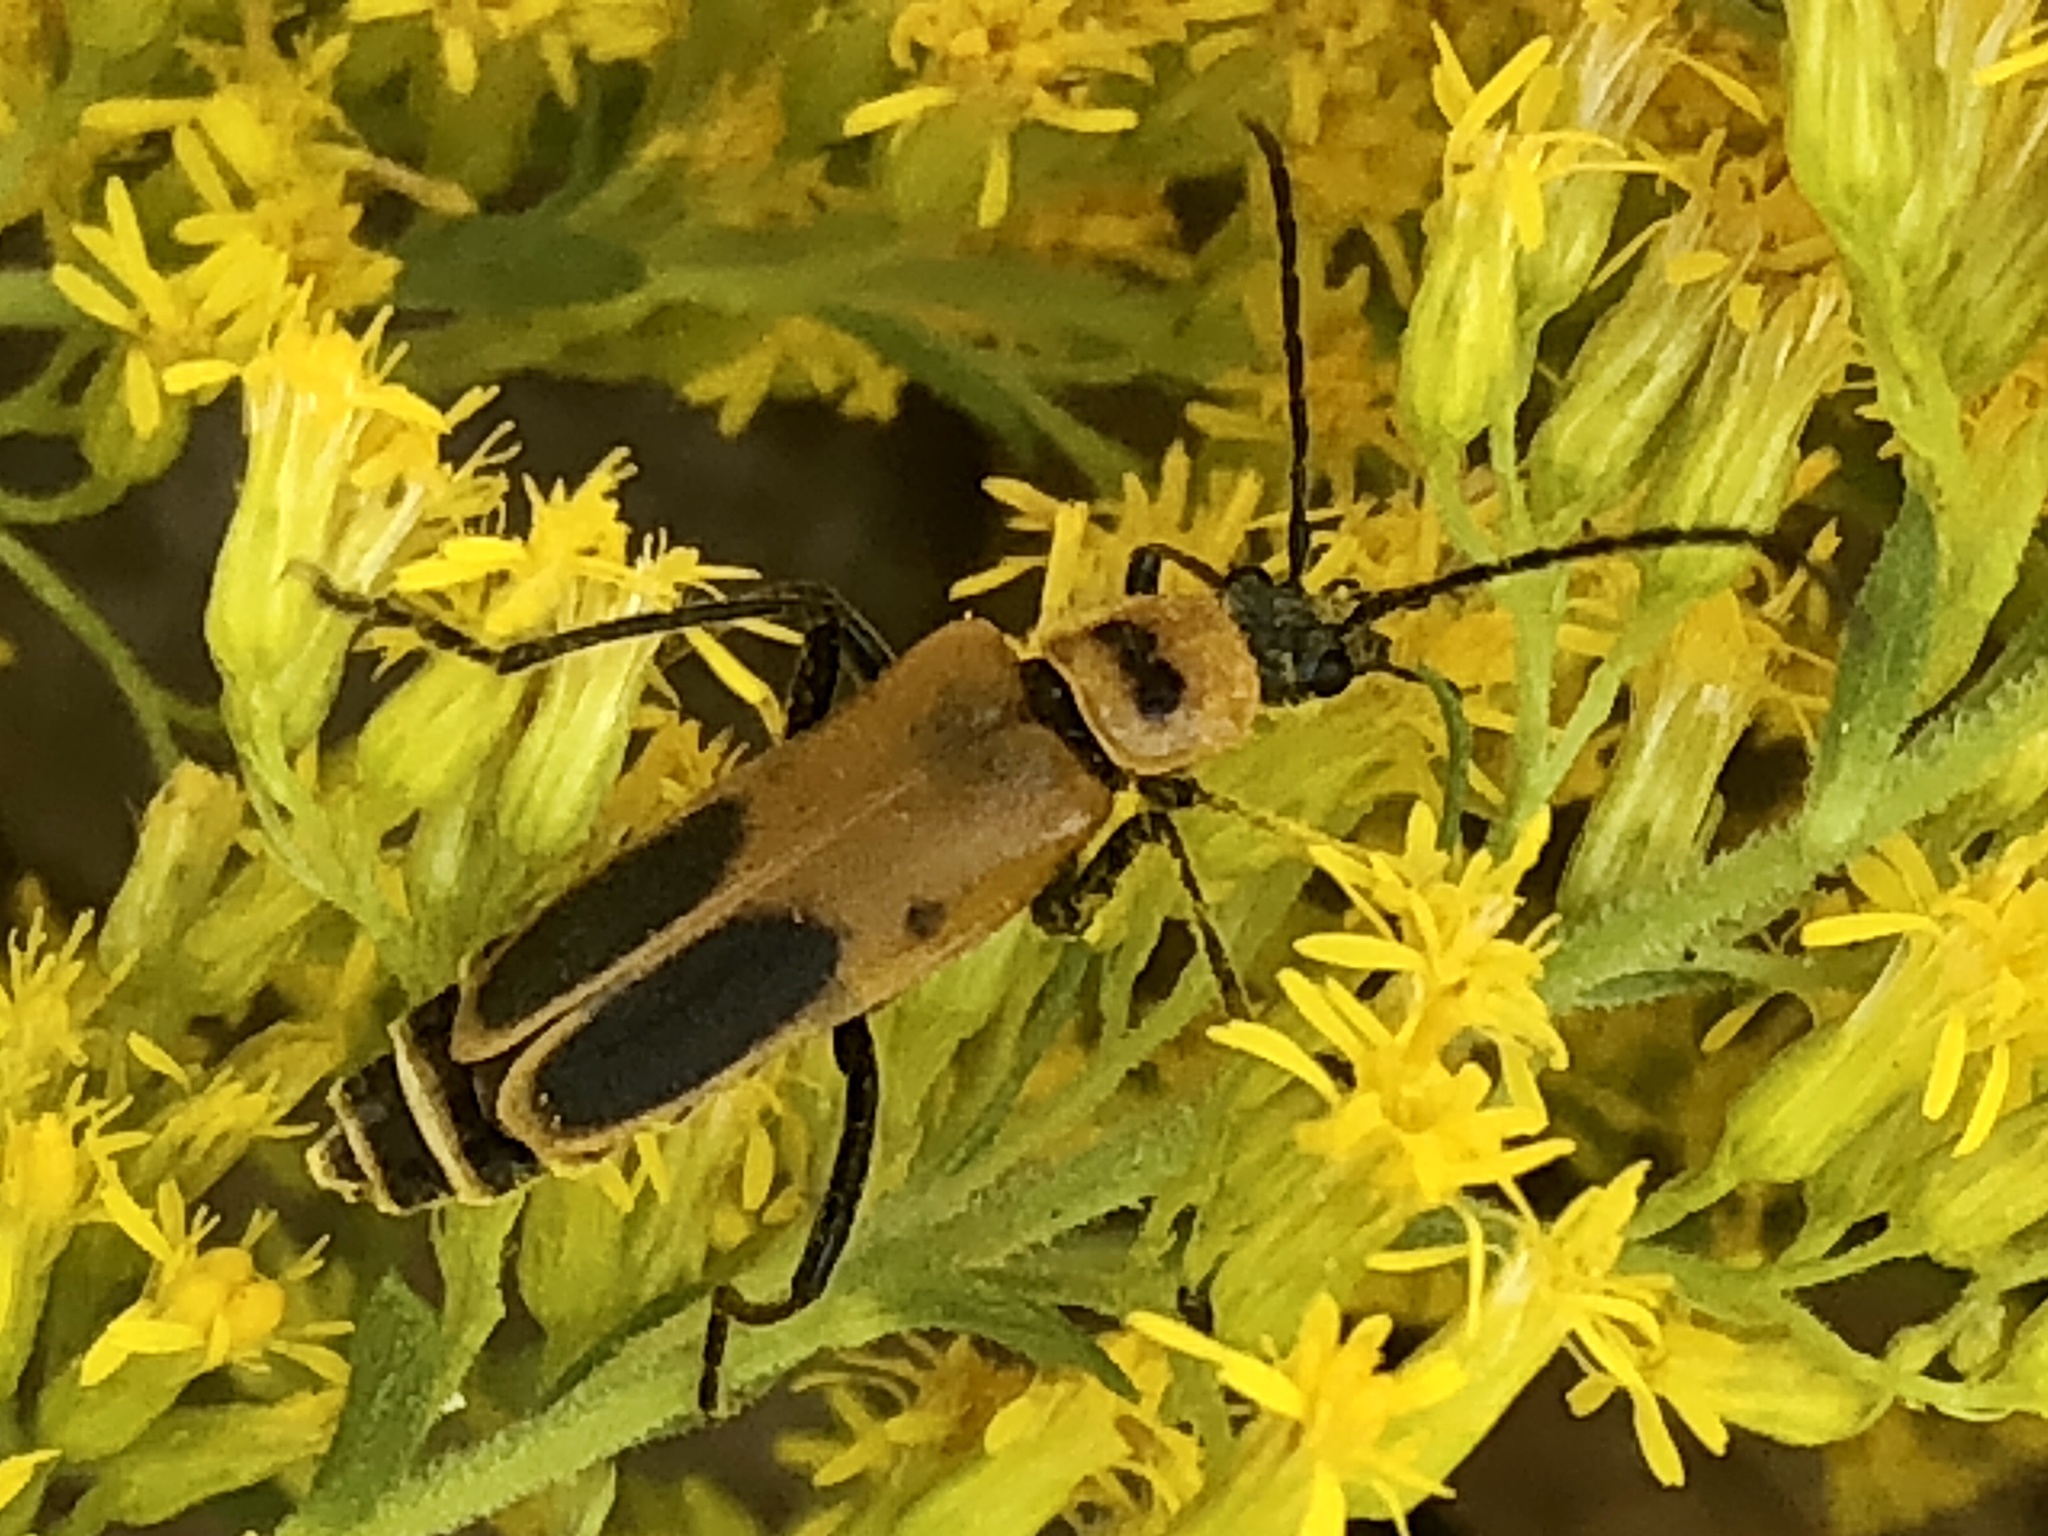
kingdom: Animalia
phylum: Arthropoda
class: Insecta
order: Coleoptera
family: Cantharidae
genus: Chauliognathus
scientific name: Chauliognathus pensylvanicus
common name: Goldenrod soldier beetle
